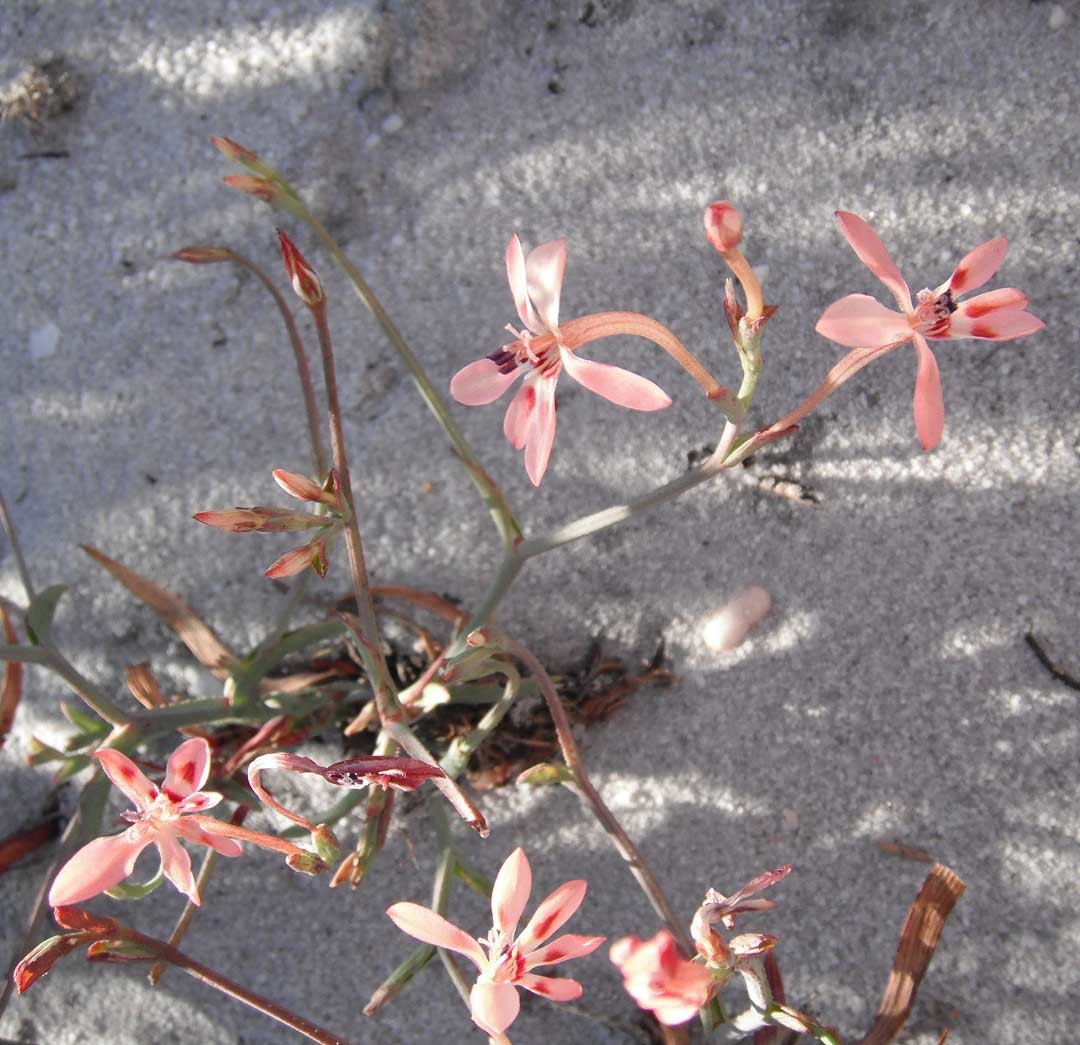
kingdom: Plantae
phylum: Tracheophyta
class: Liliopsida
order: Asparagales
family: Iridaceae
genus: Lapeirousia
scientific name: Lapeirousia anceps
